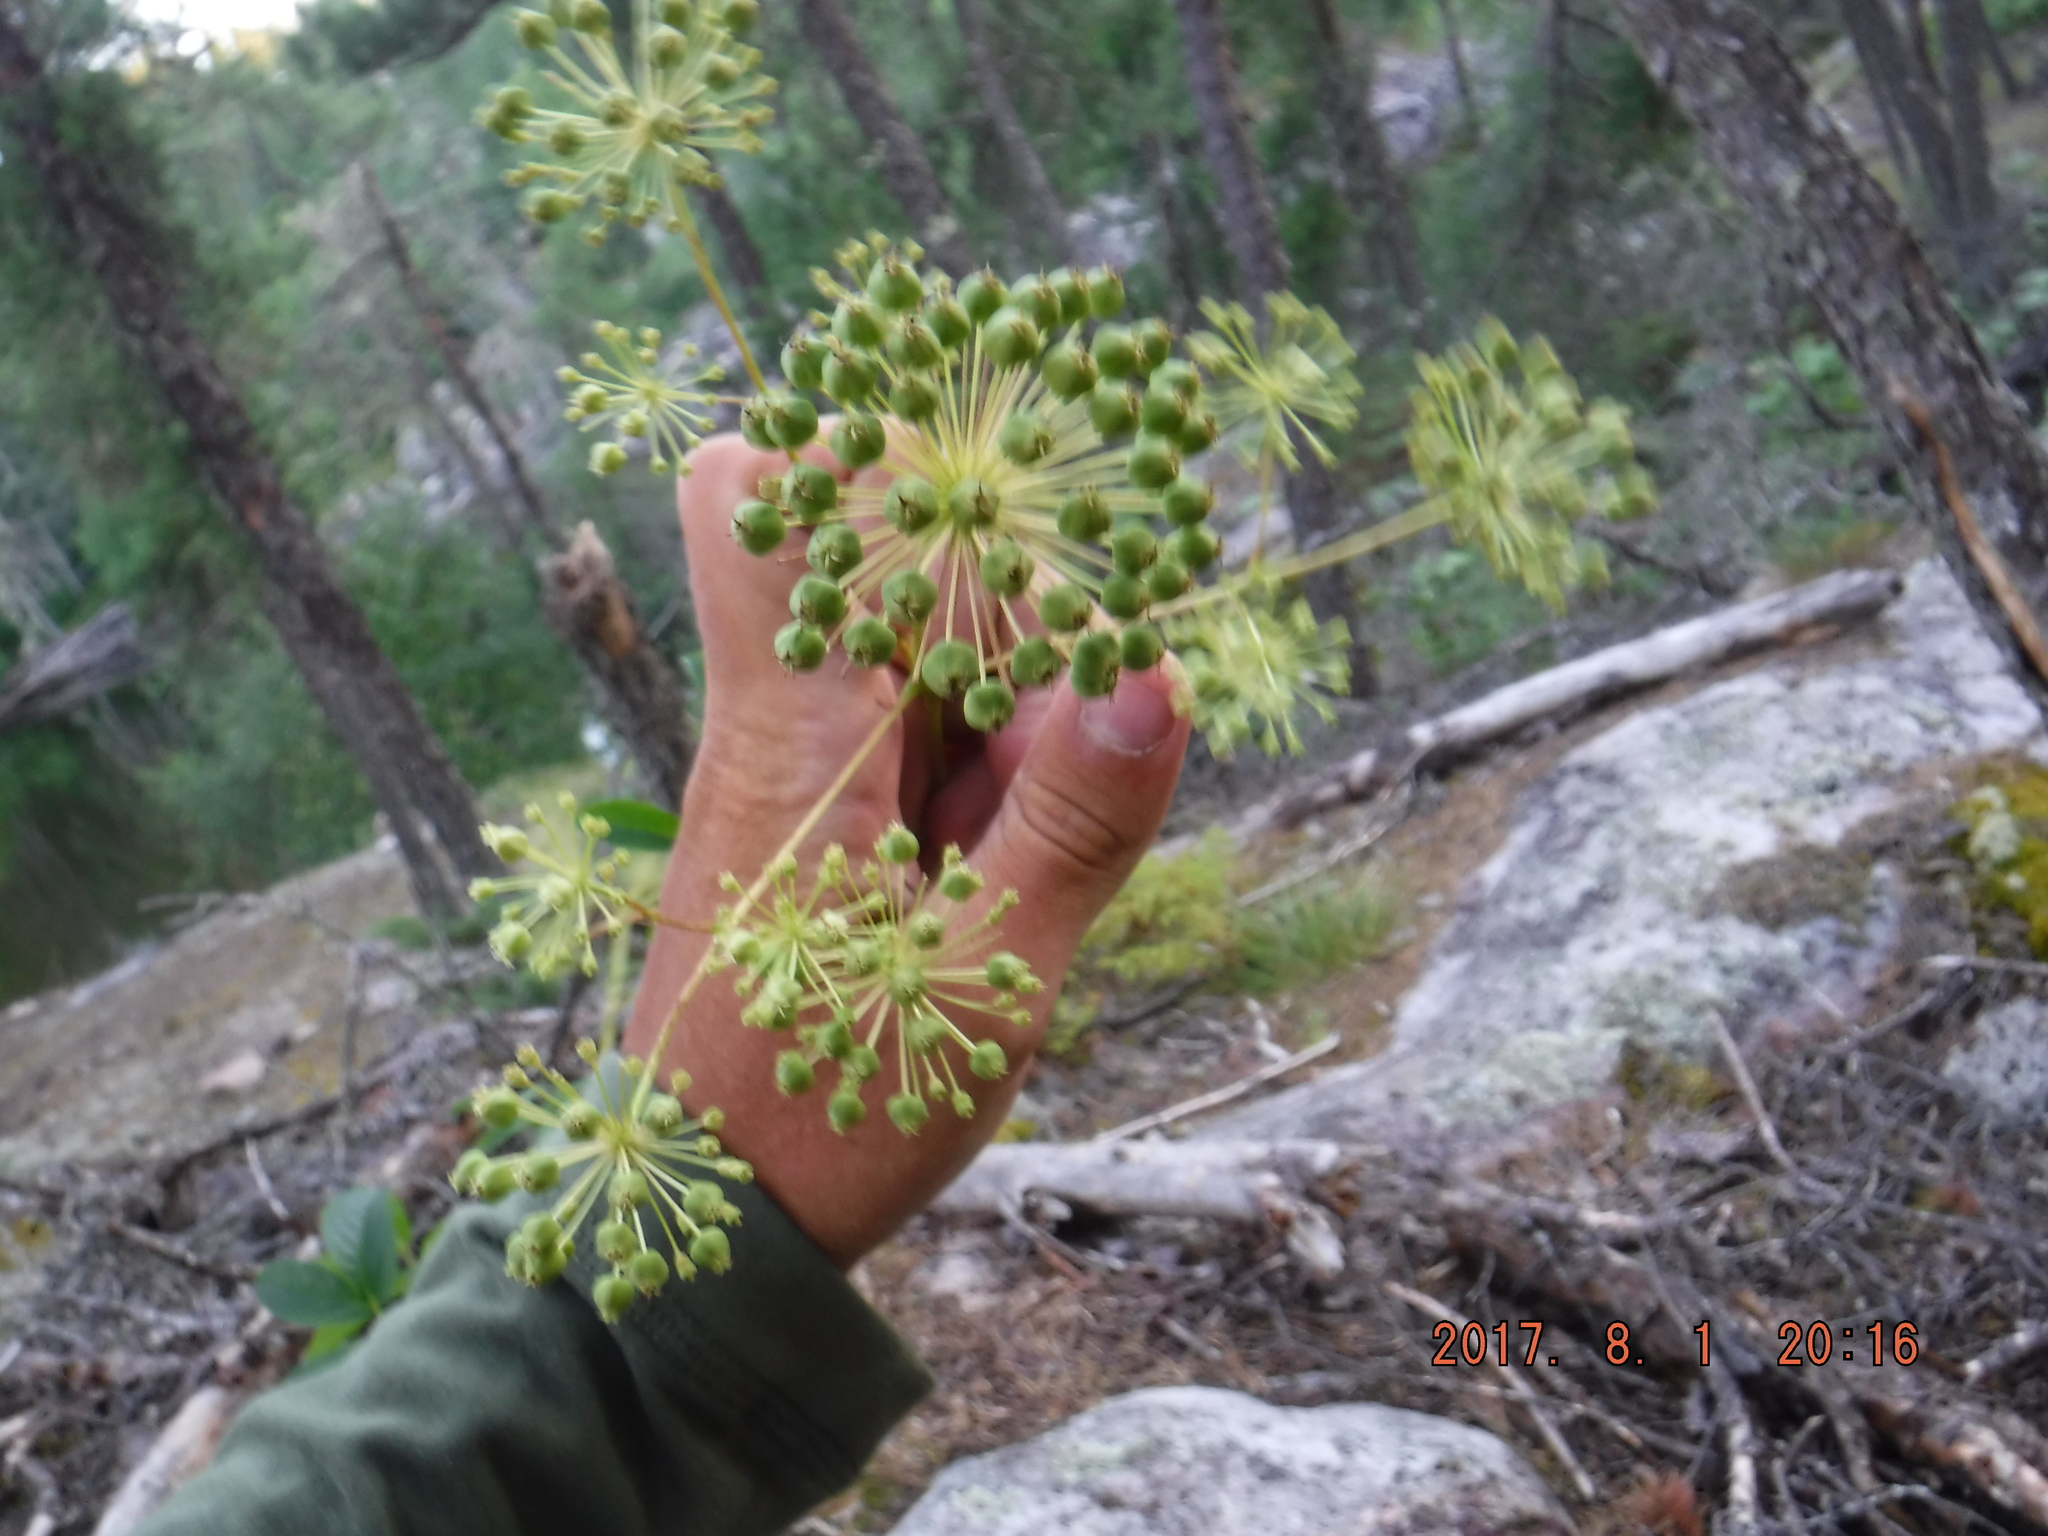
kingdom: Plantae
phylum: Tracheophyta
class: Magnoliopsida
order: Apiales
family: Araliaceae
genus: Aralia
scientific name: Aralia hispida
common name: Bristly sarsaparilla
